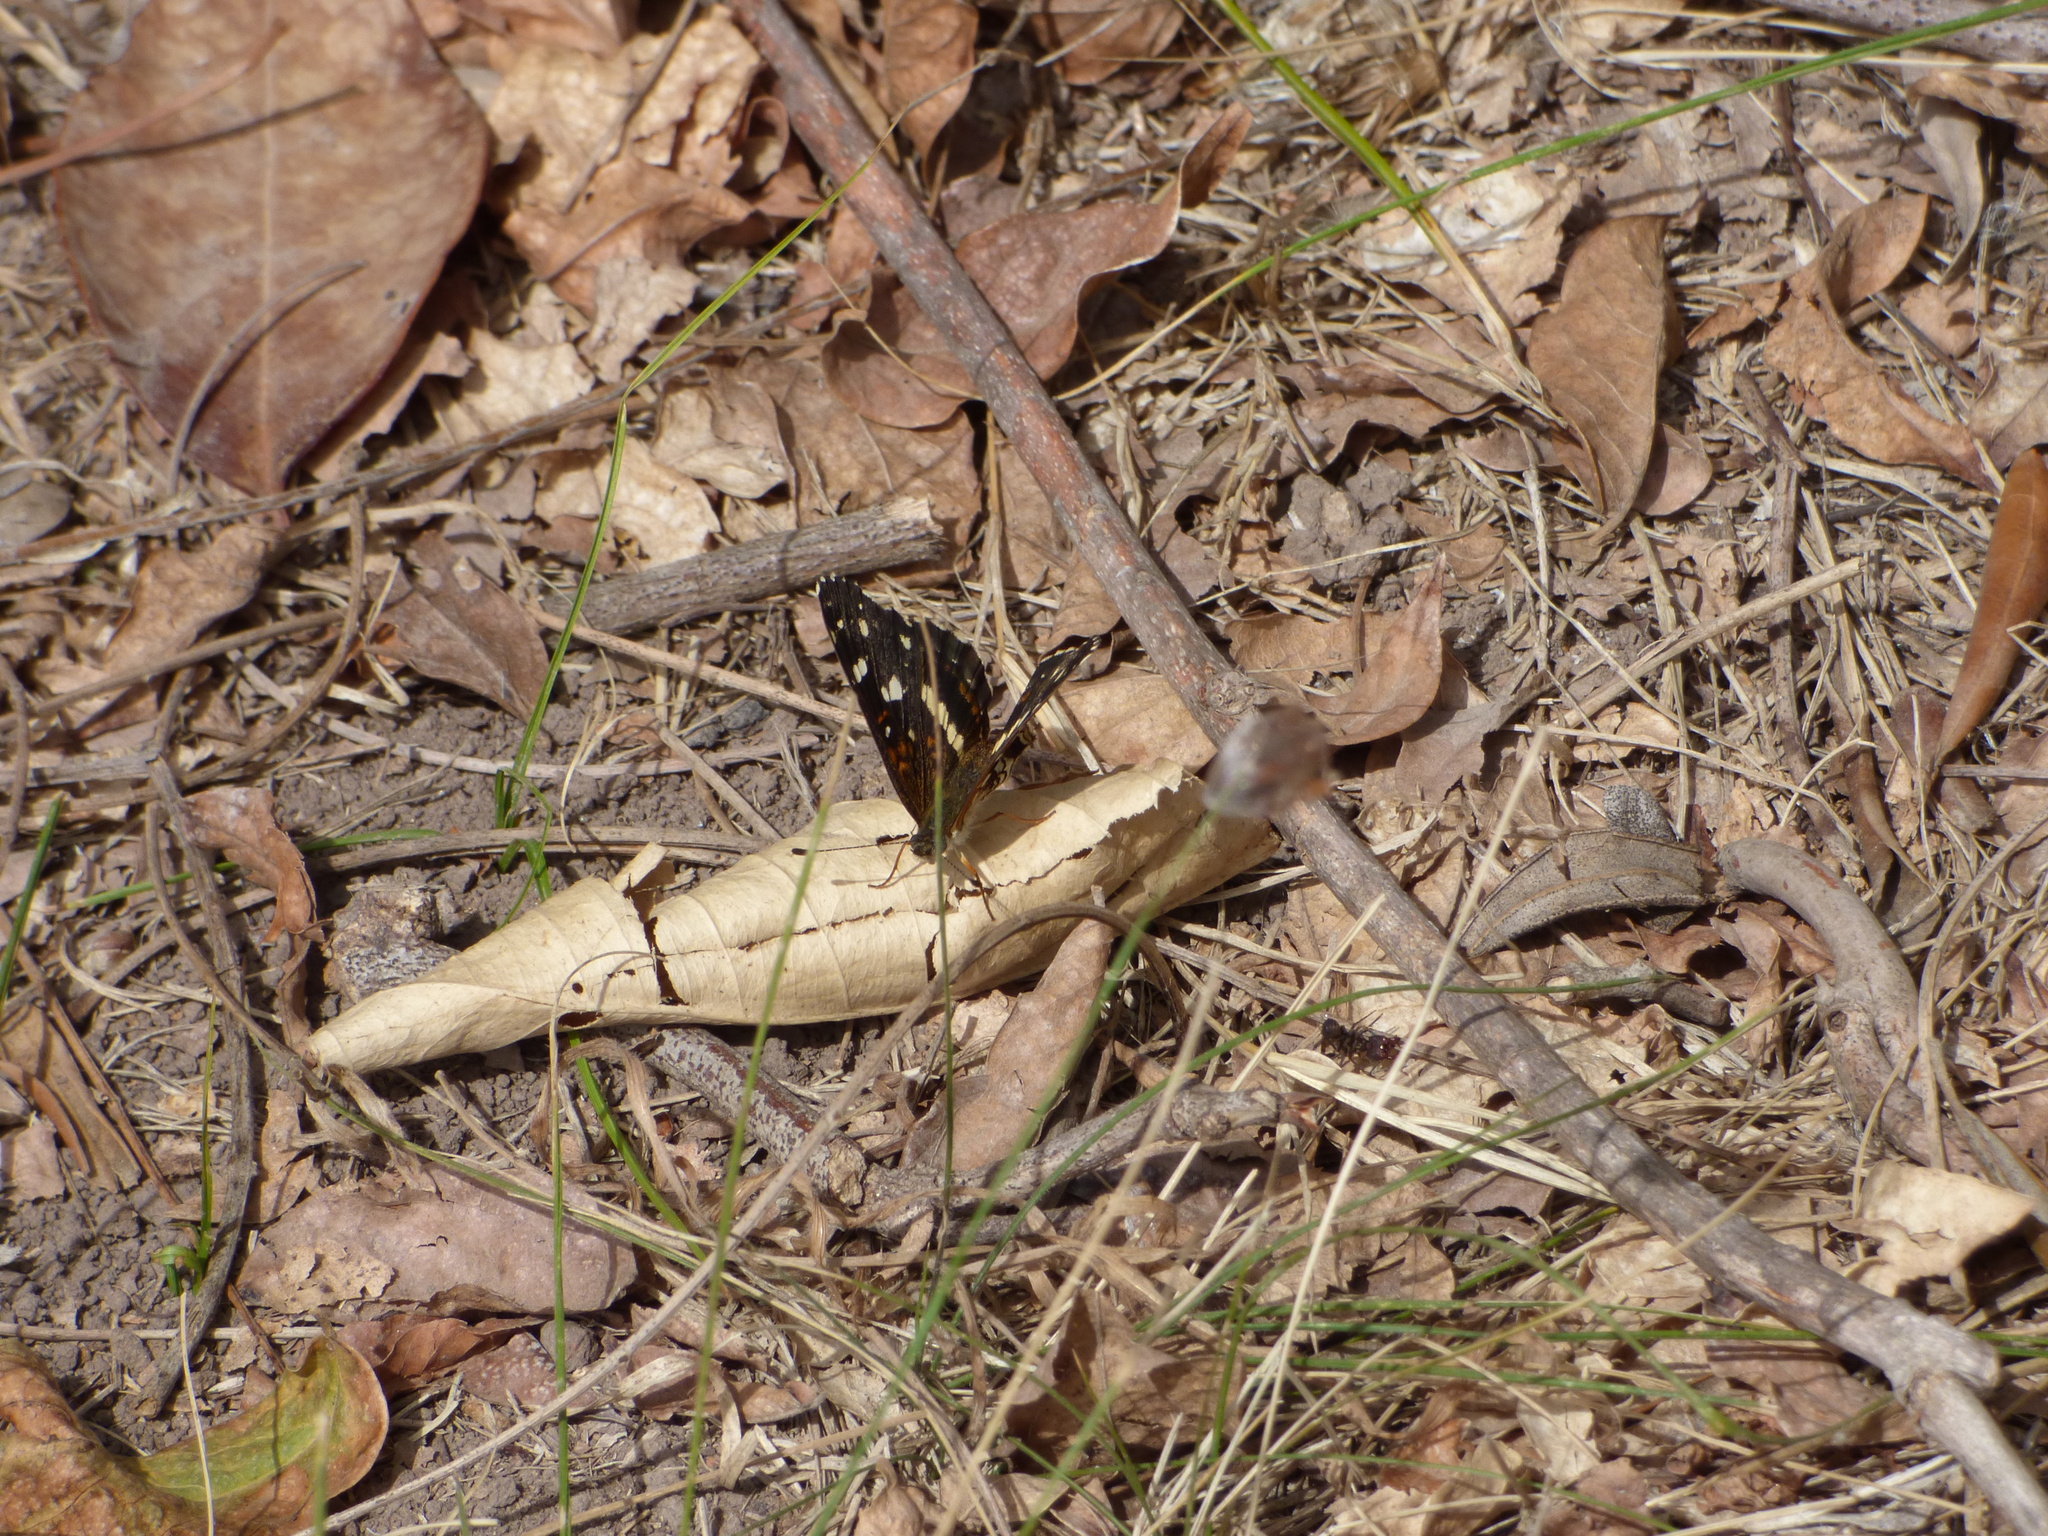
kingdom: Animalia
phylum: Arthropoda
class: Insecta
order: Lepidoptera
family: Nymphalidae
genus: Ortilia
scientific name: Ortilia ithra
